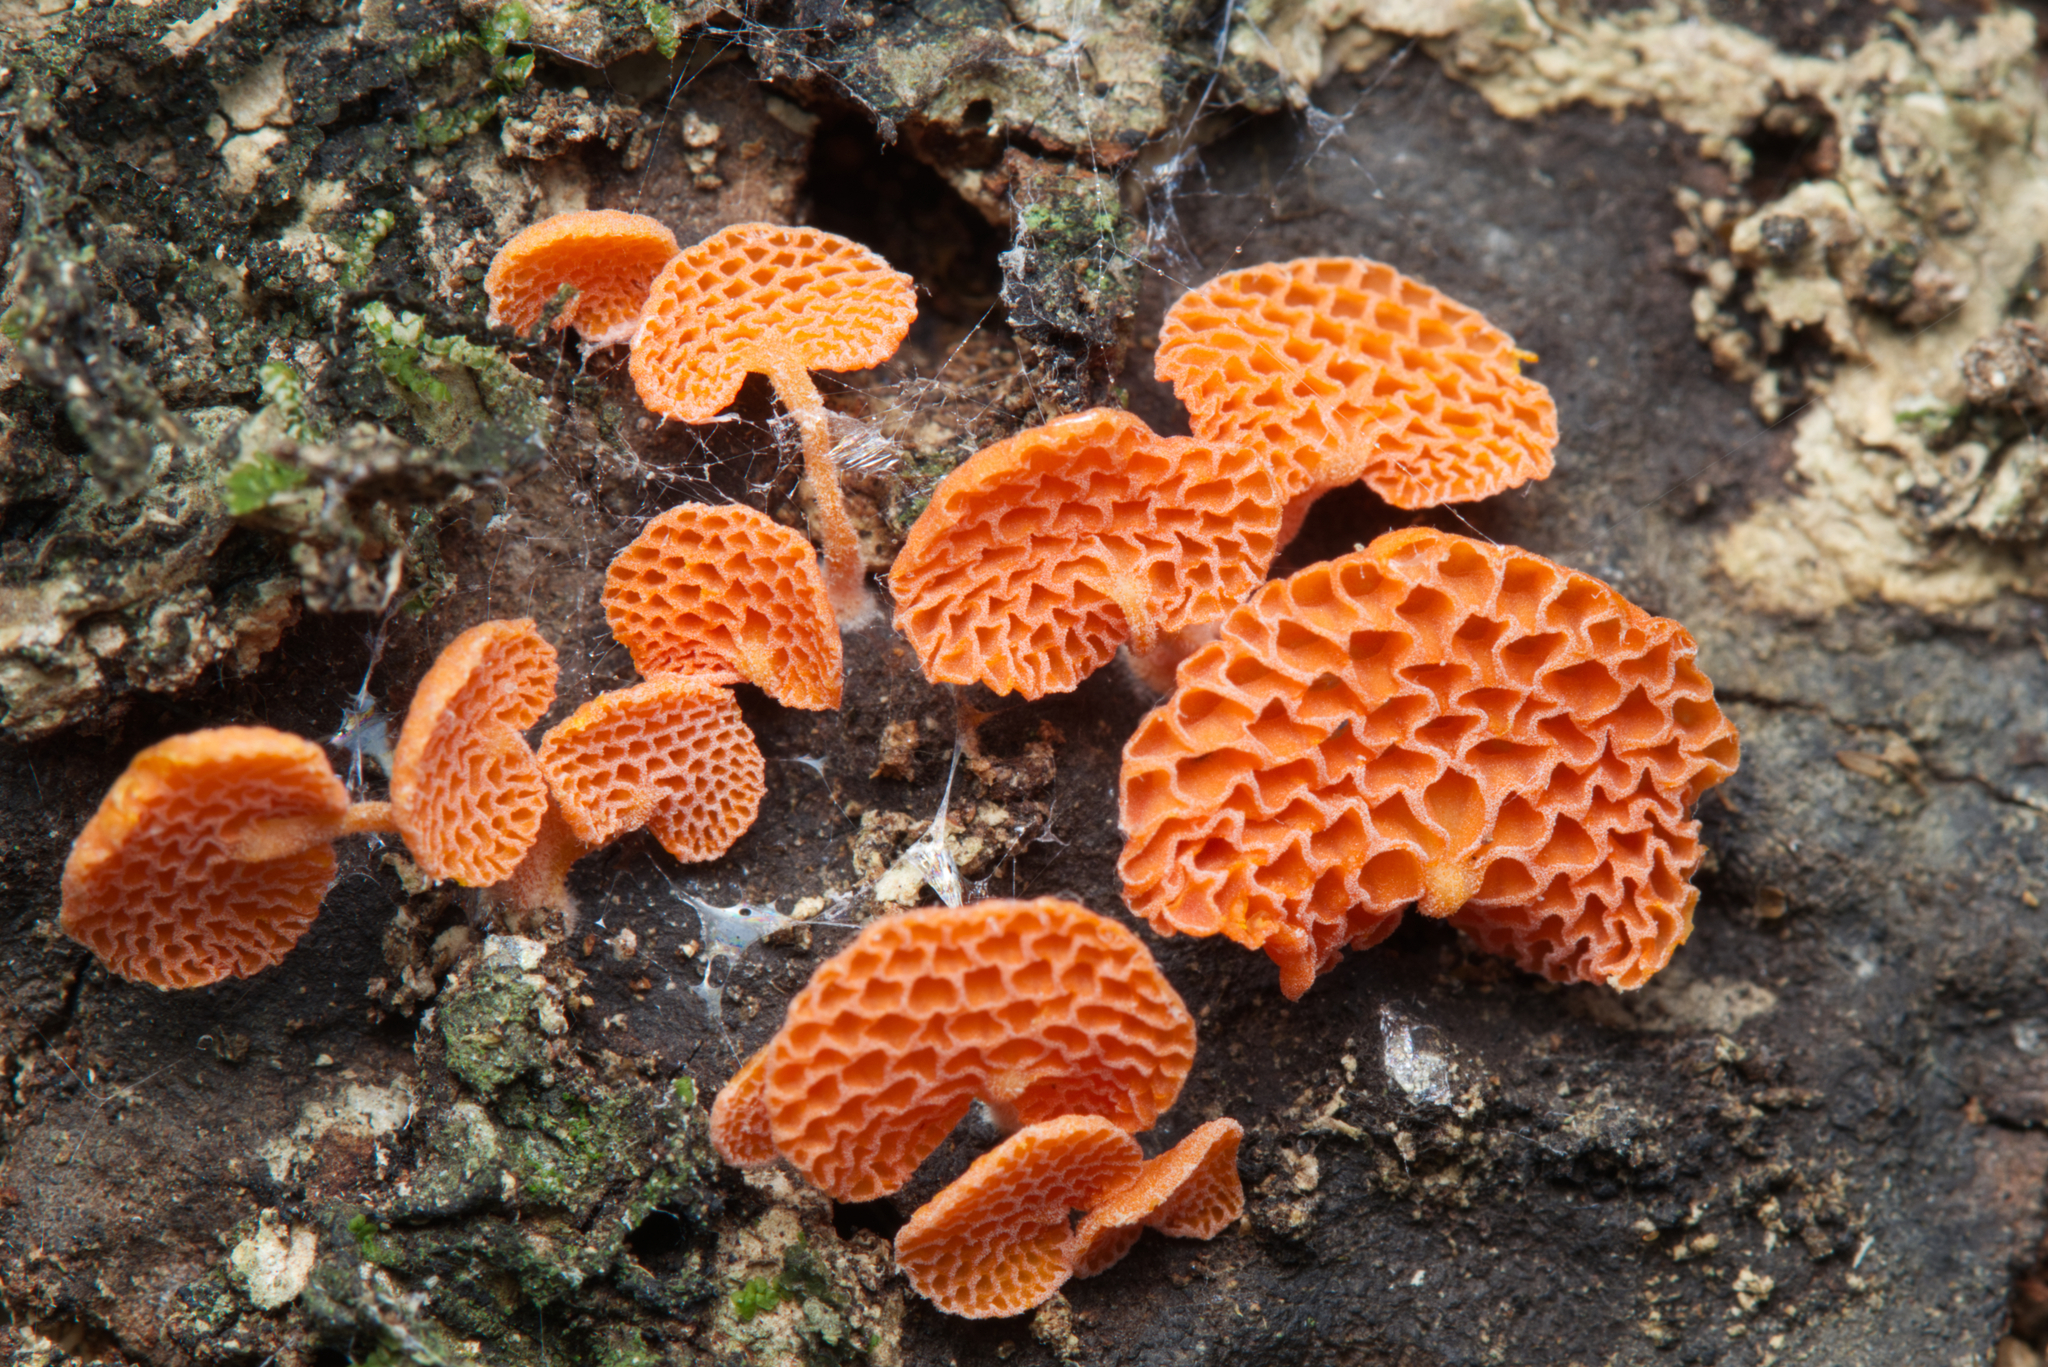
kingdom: Fungi
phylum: Basidiomycota
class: Agaricomycetes
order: Agaricales
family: Mycenaceae
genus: Favolaschia
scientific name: Favolaschia claudopus
